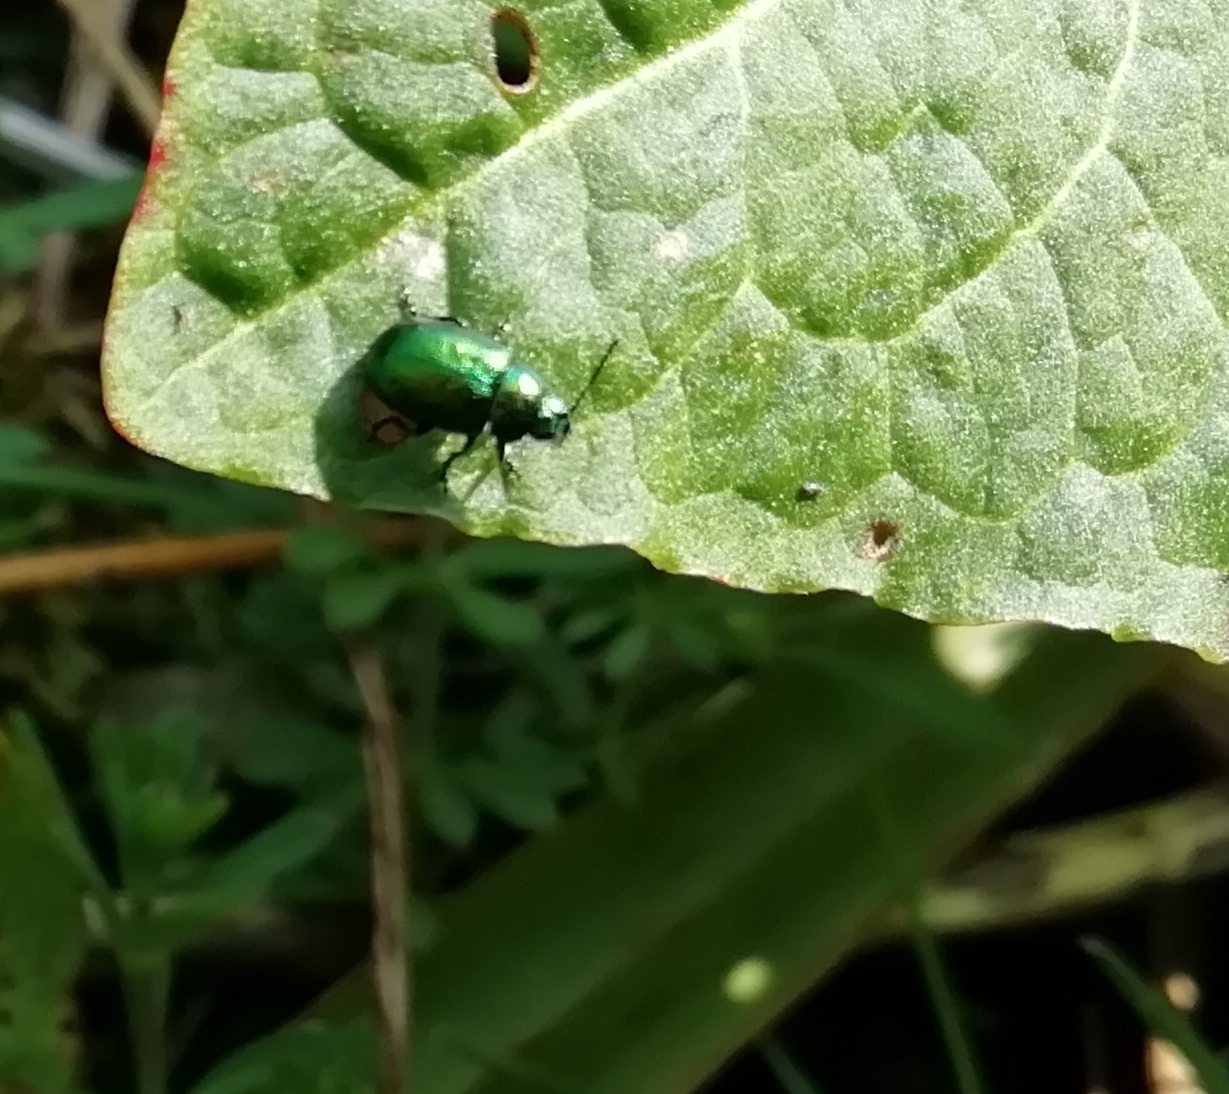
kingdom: Animalia
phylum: Arthropoda
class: Insecta
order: Coleoptera
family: Chrysomelidae
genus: Gastrophysa
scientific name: Gastrophysa viridula
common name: Green dock beetle
